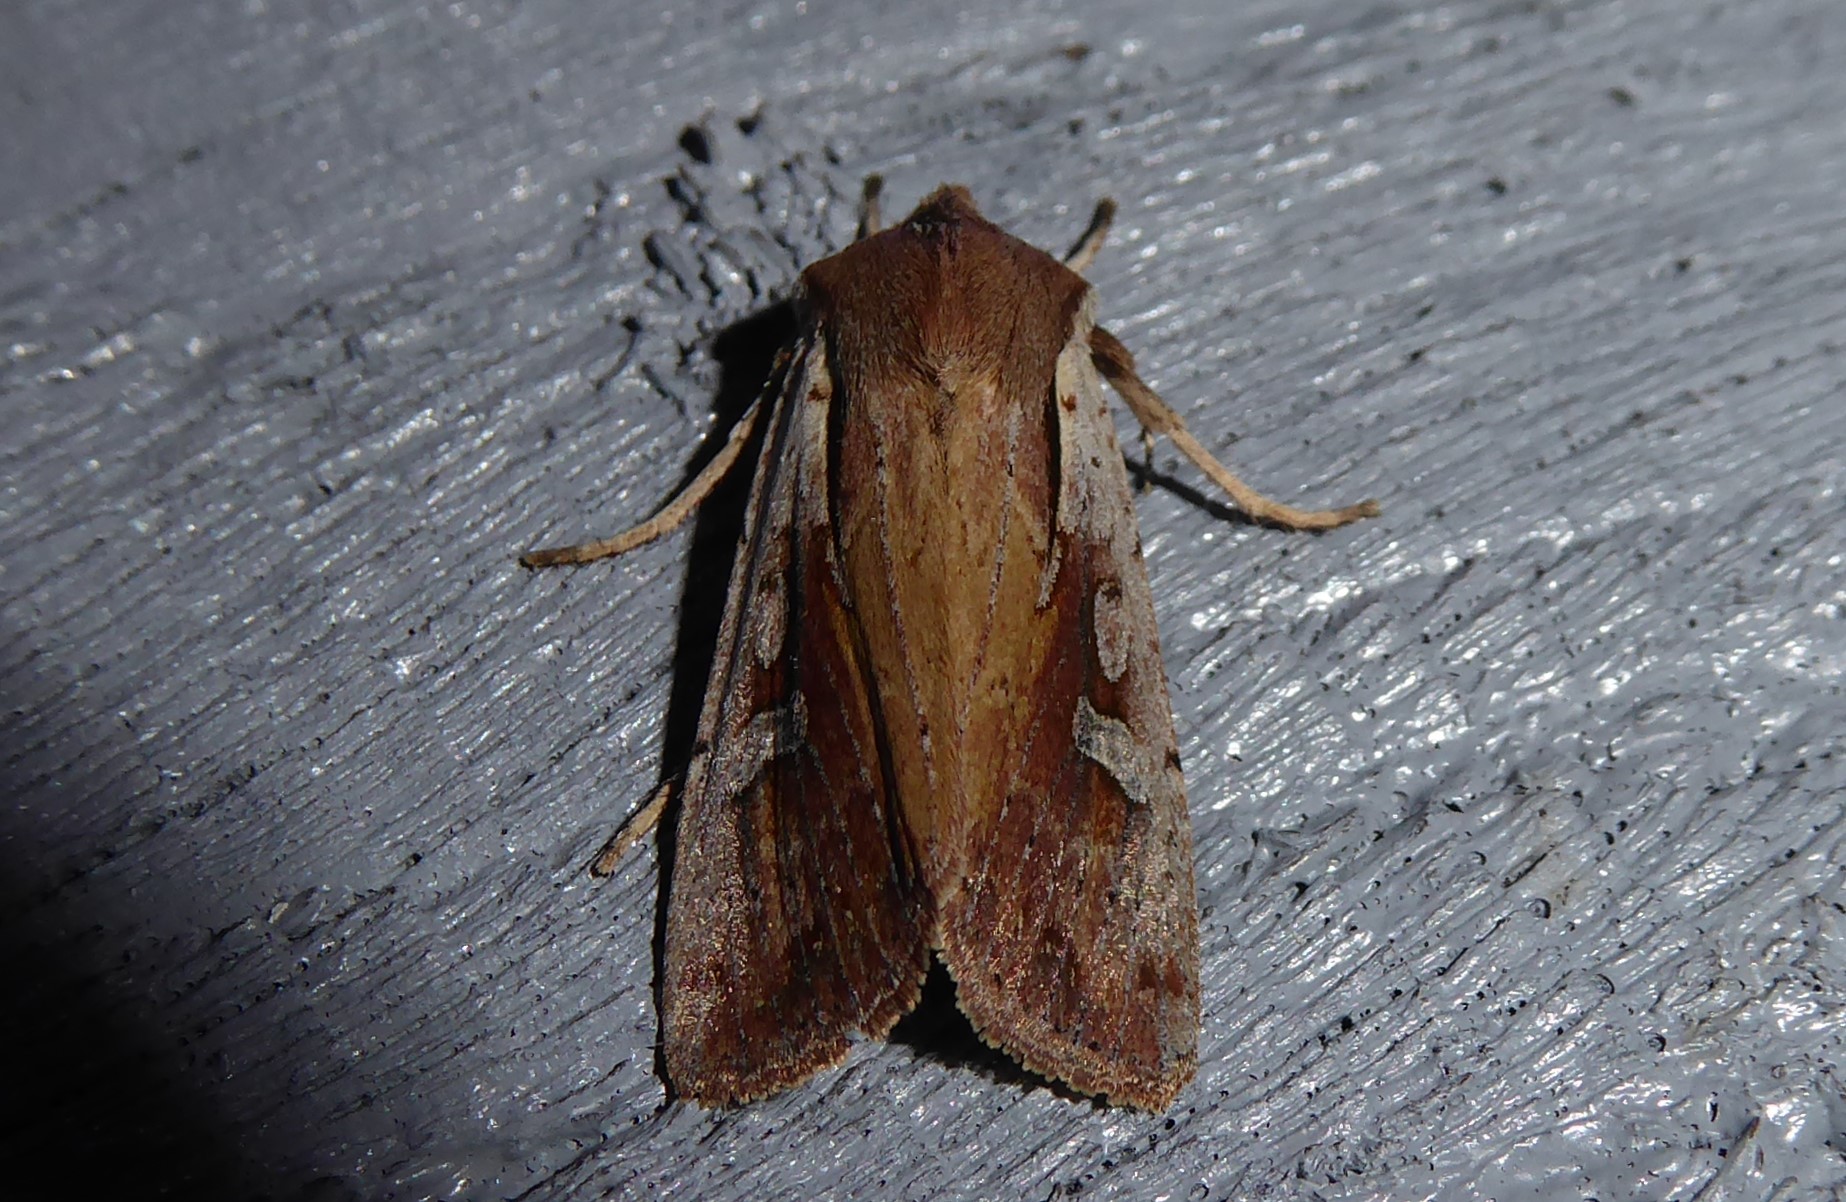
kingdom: Animalia
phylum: Arthropoda
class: Insecta
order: Lepidoptera
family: Noctuidae
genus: Ichneutica
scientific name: Ichneutica atristriga
